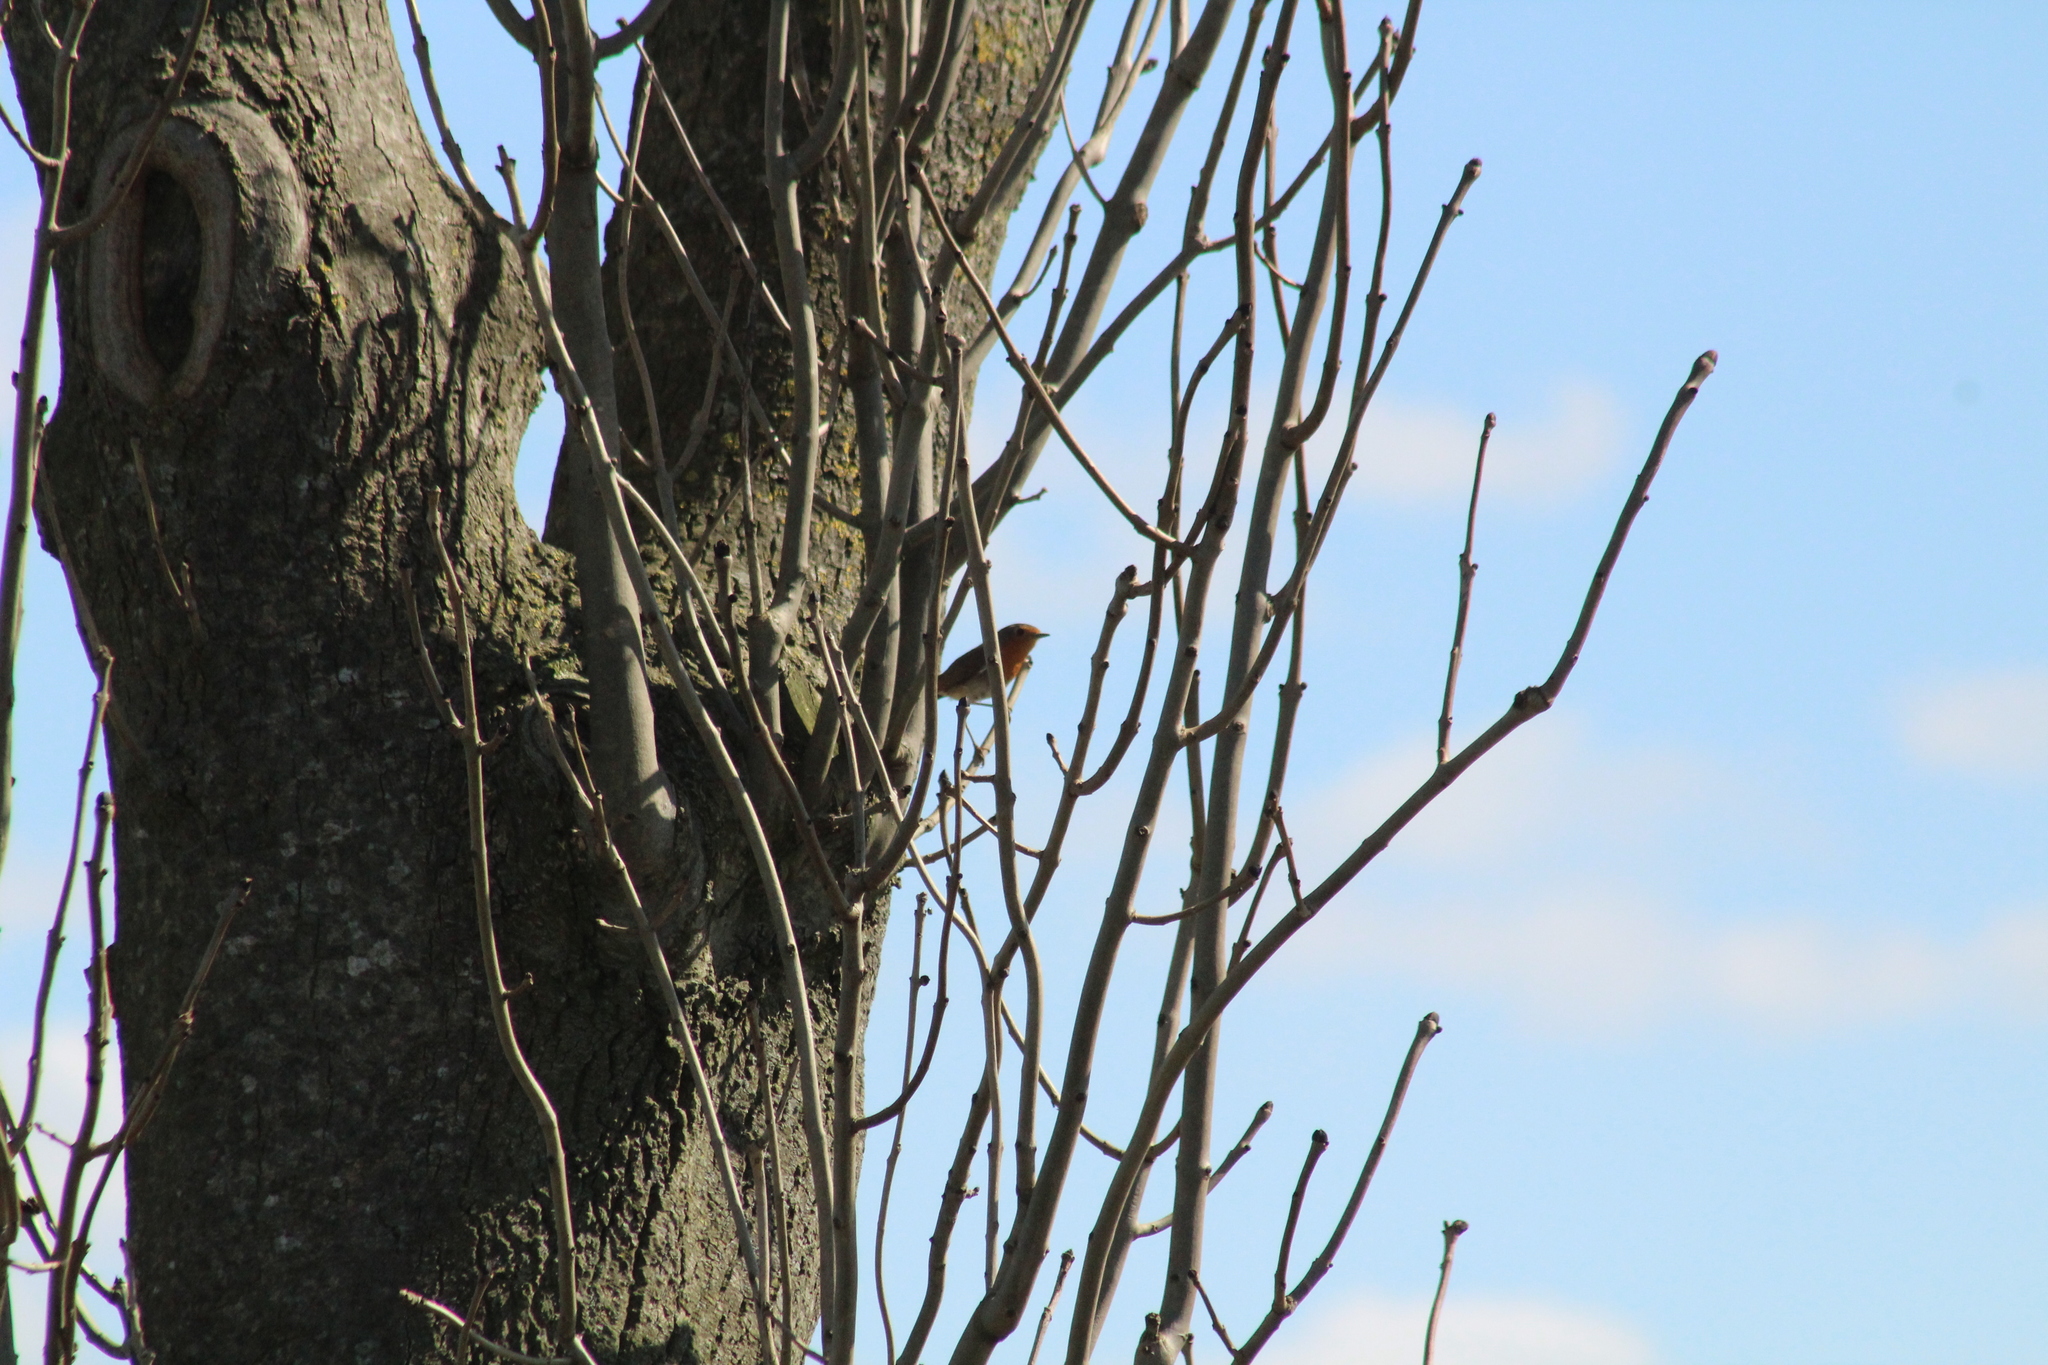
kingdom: Animalia
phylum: Chordata
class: Aves
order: Passeriformes
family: Muscicapidae
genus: Erithacus
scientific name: Erithacus rubecula
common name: European robin
